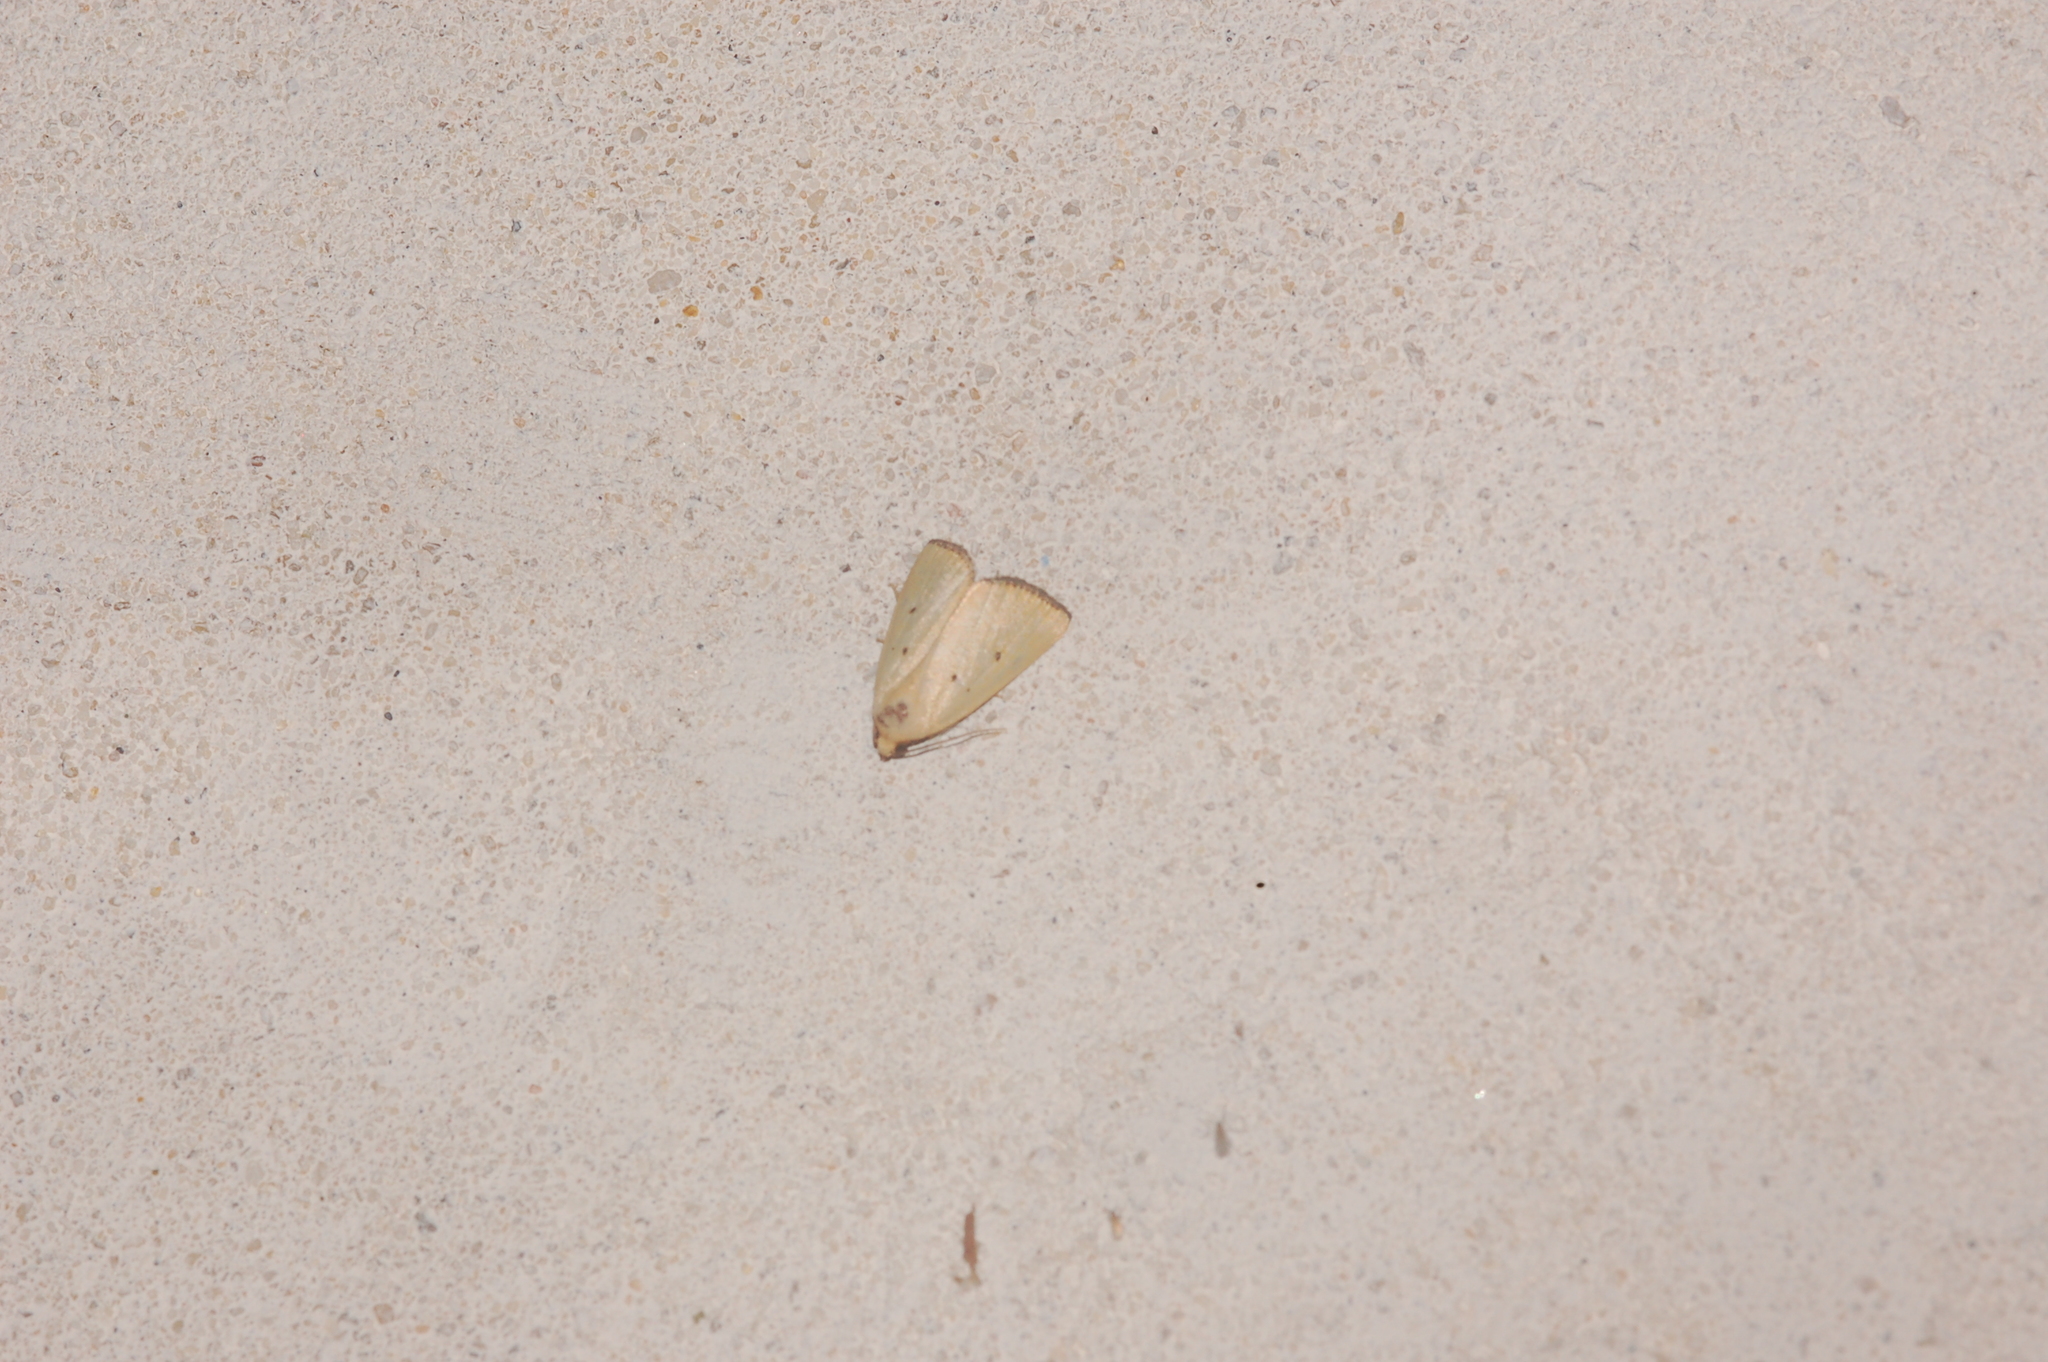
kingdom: Animalia
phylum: Arthropoda
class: Insecta
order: Lepidoptera
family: Noctuidae
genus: Marimatha
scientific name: Marimatha nigrofimbria
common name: Black-bordered lemon moth
